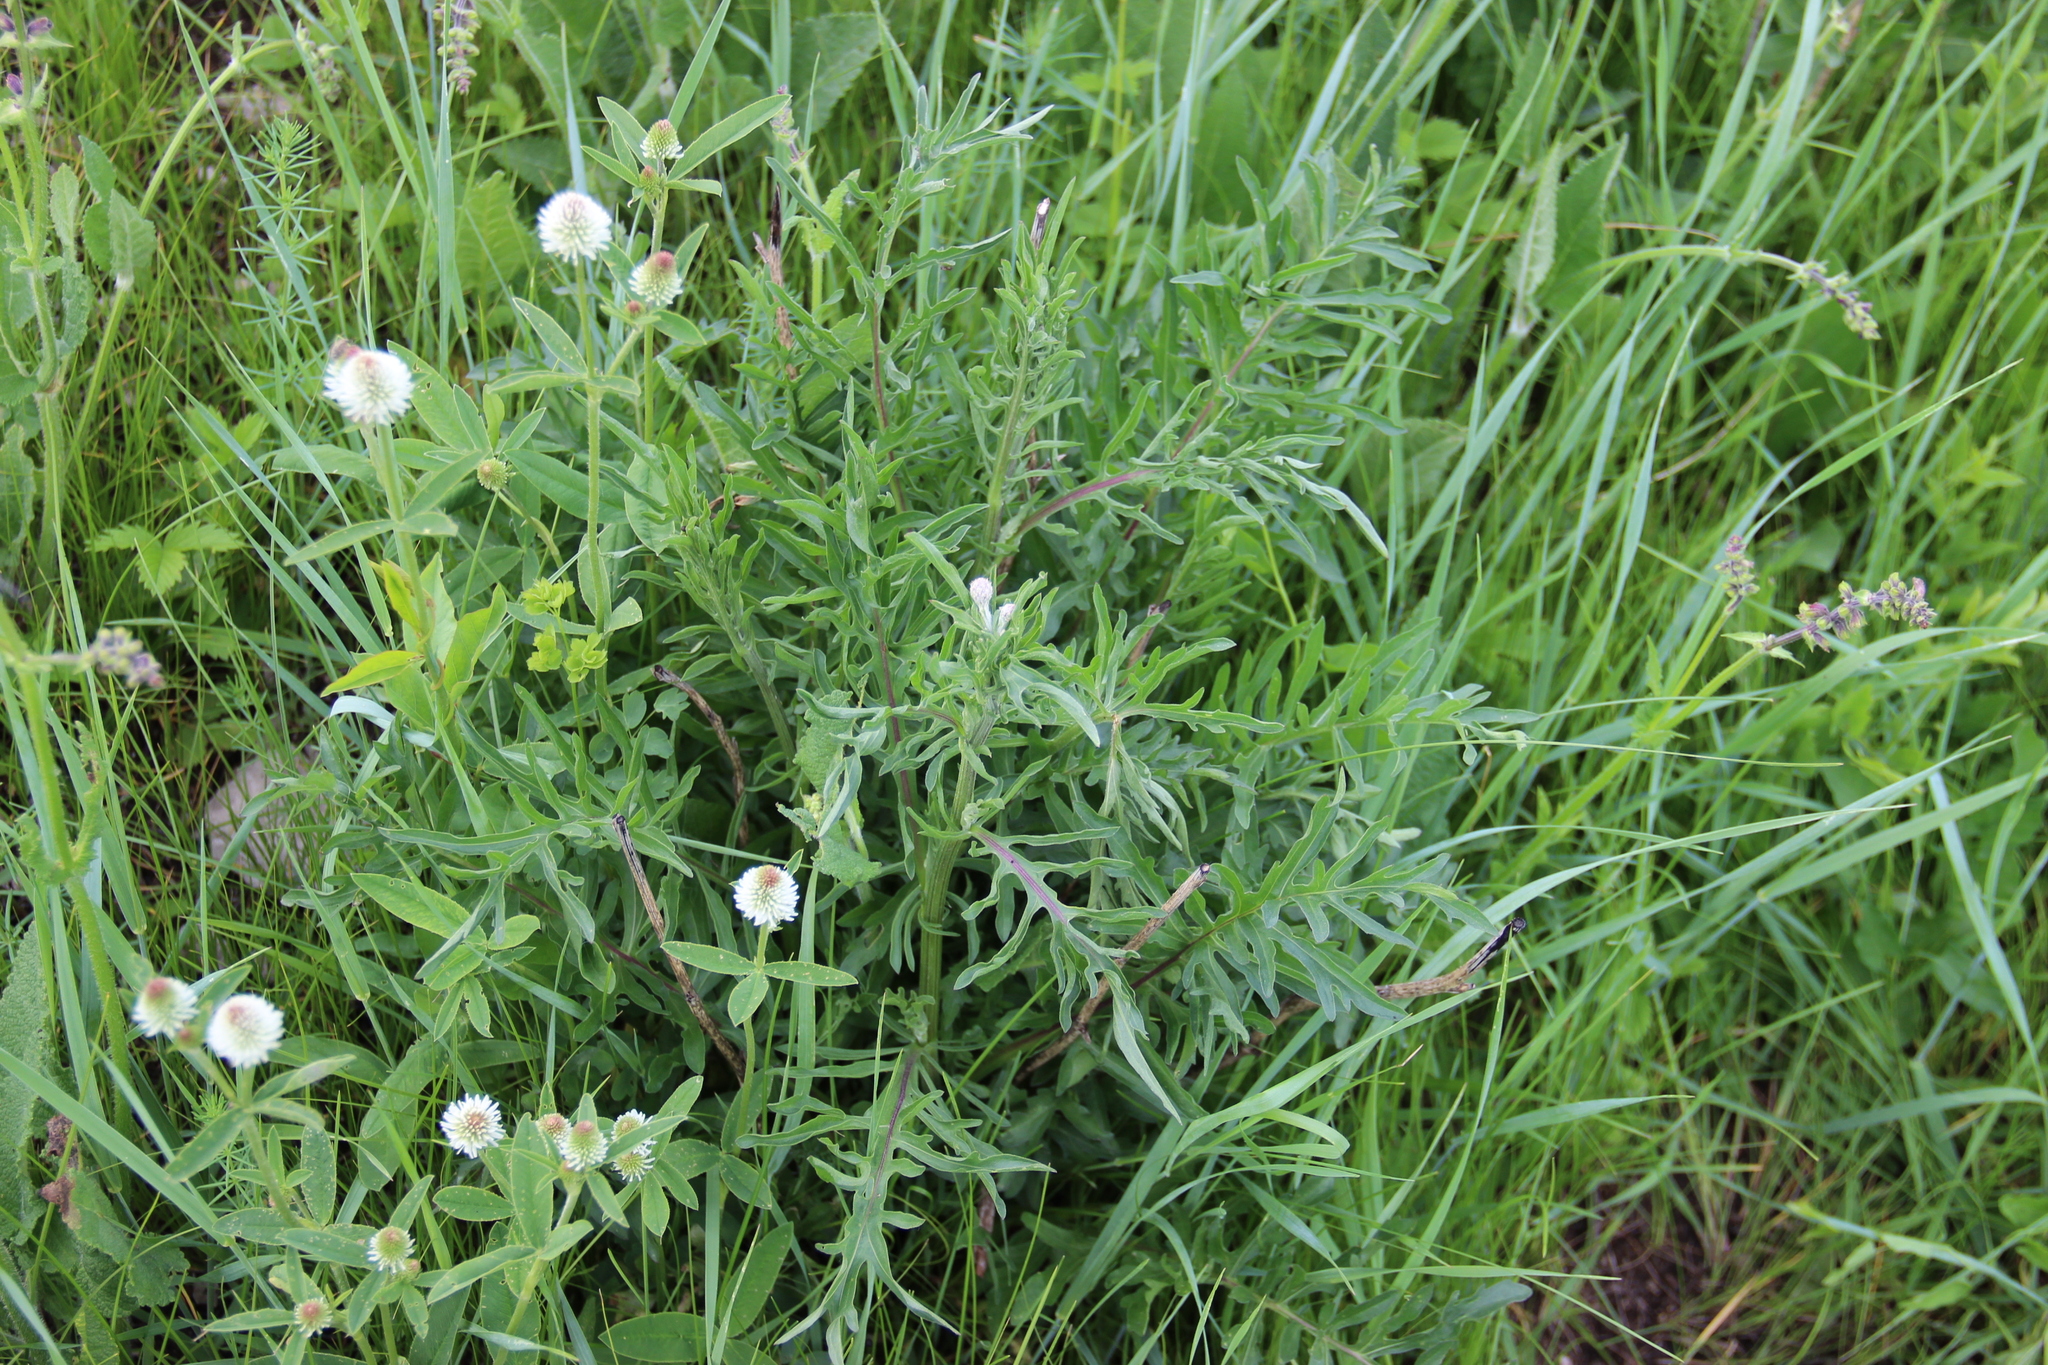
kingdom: Plantae
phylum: Tracheophyta
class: Magnoliopsida
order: Asterales
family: Asteraceae
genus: Centaurea
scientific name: Centaurea scabiosa
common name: Greater knapweed
